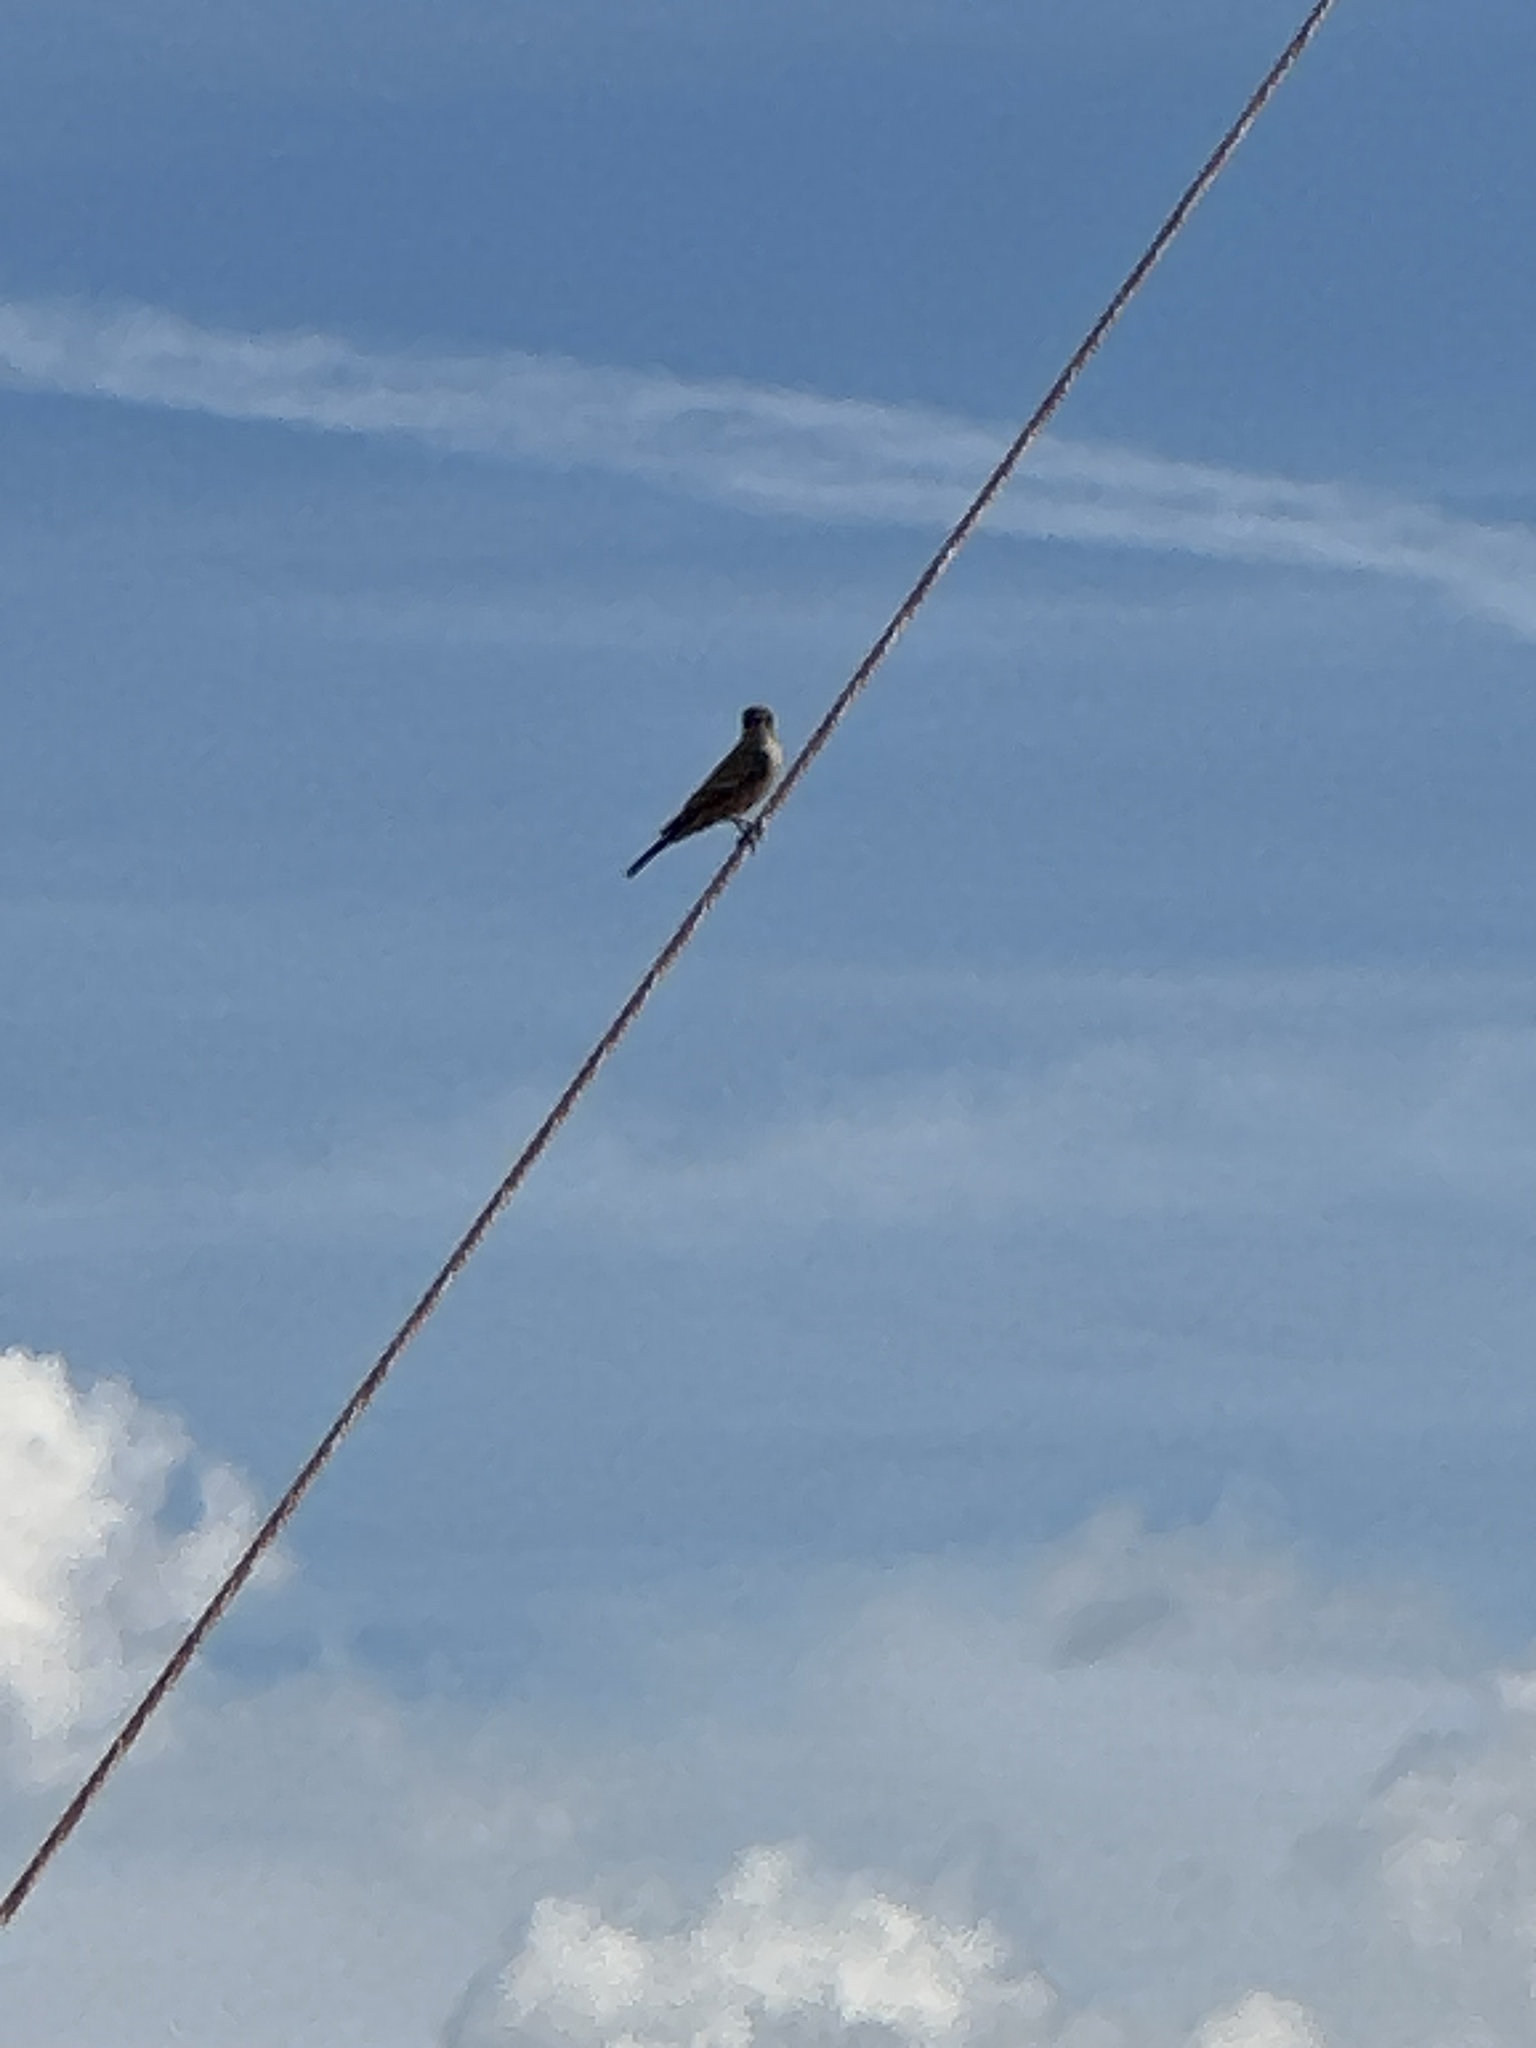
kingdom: Animalia
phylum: Chordata
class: Aves
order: Passeriformes
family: Tyrannidae
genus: Sayornis
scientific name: Sayornis saya
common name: Say's phoebe
